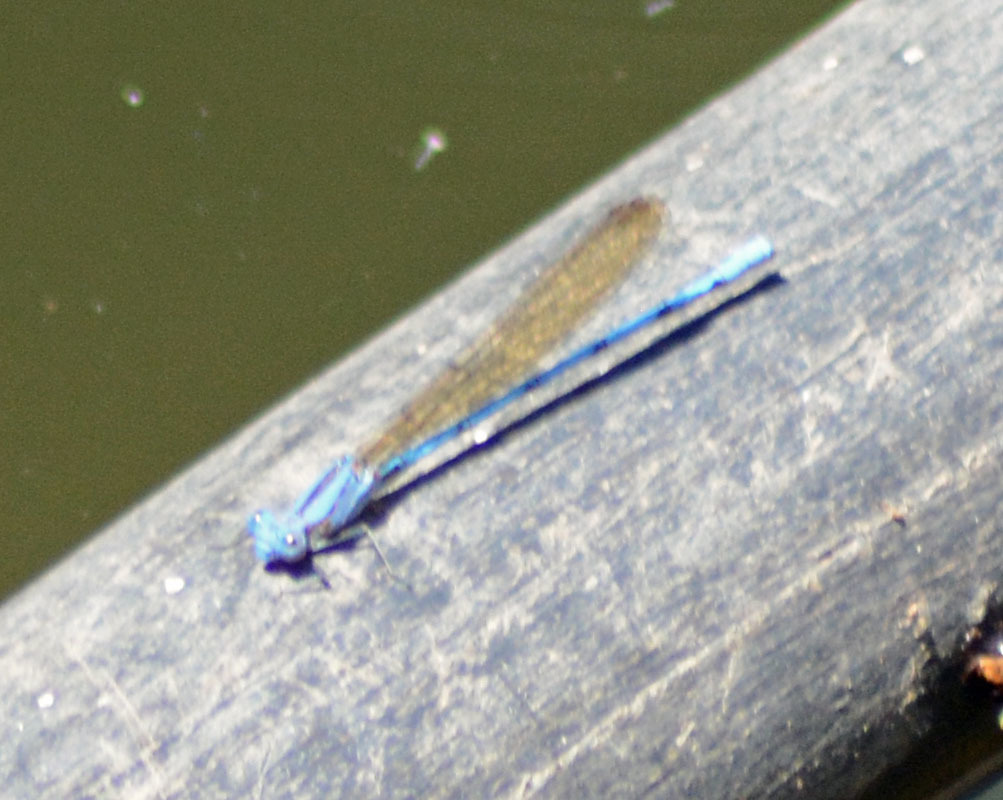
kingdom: Animalia
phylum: Arthropoda
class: Insecta
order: Odonata
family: Coenagrionidae
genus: Argia
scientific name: Argia anceps
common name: Cerulean dancer
